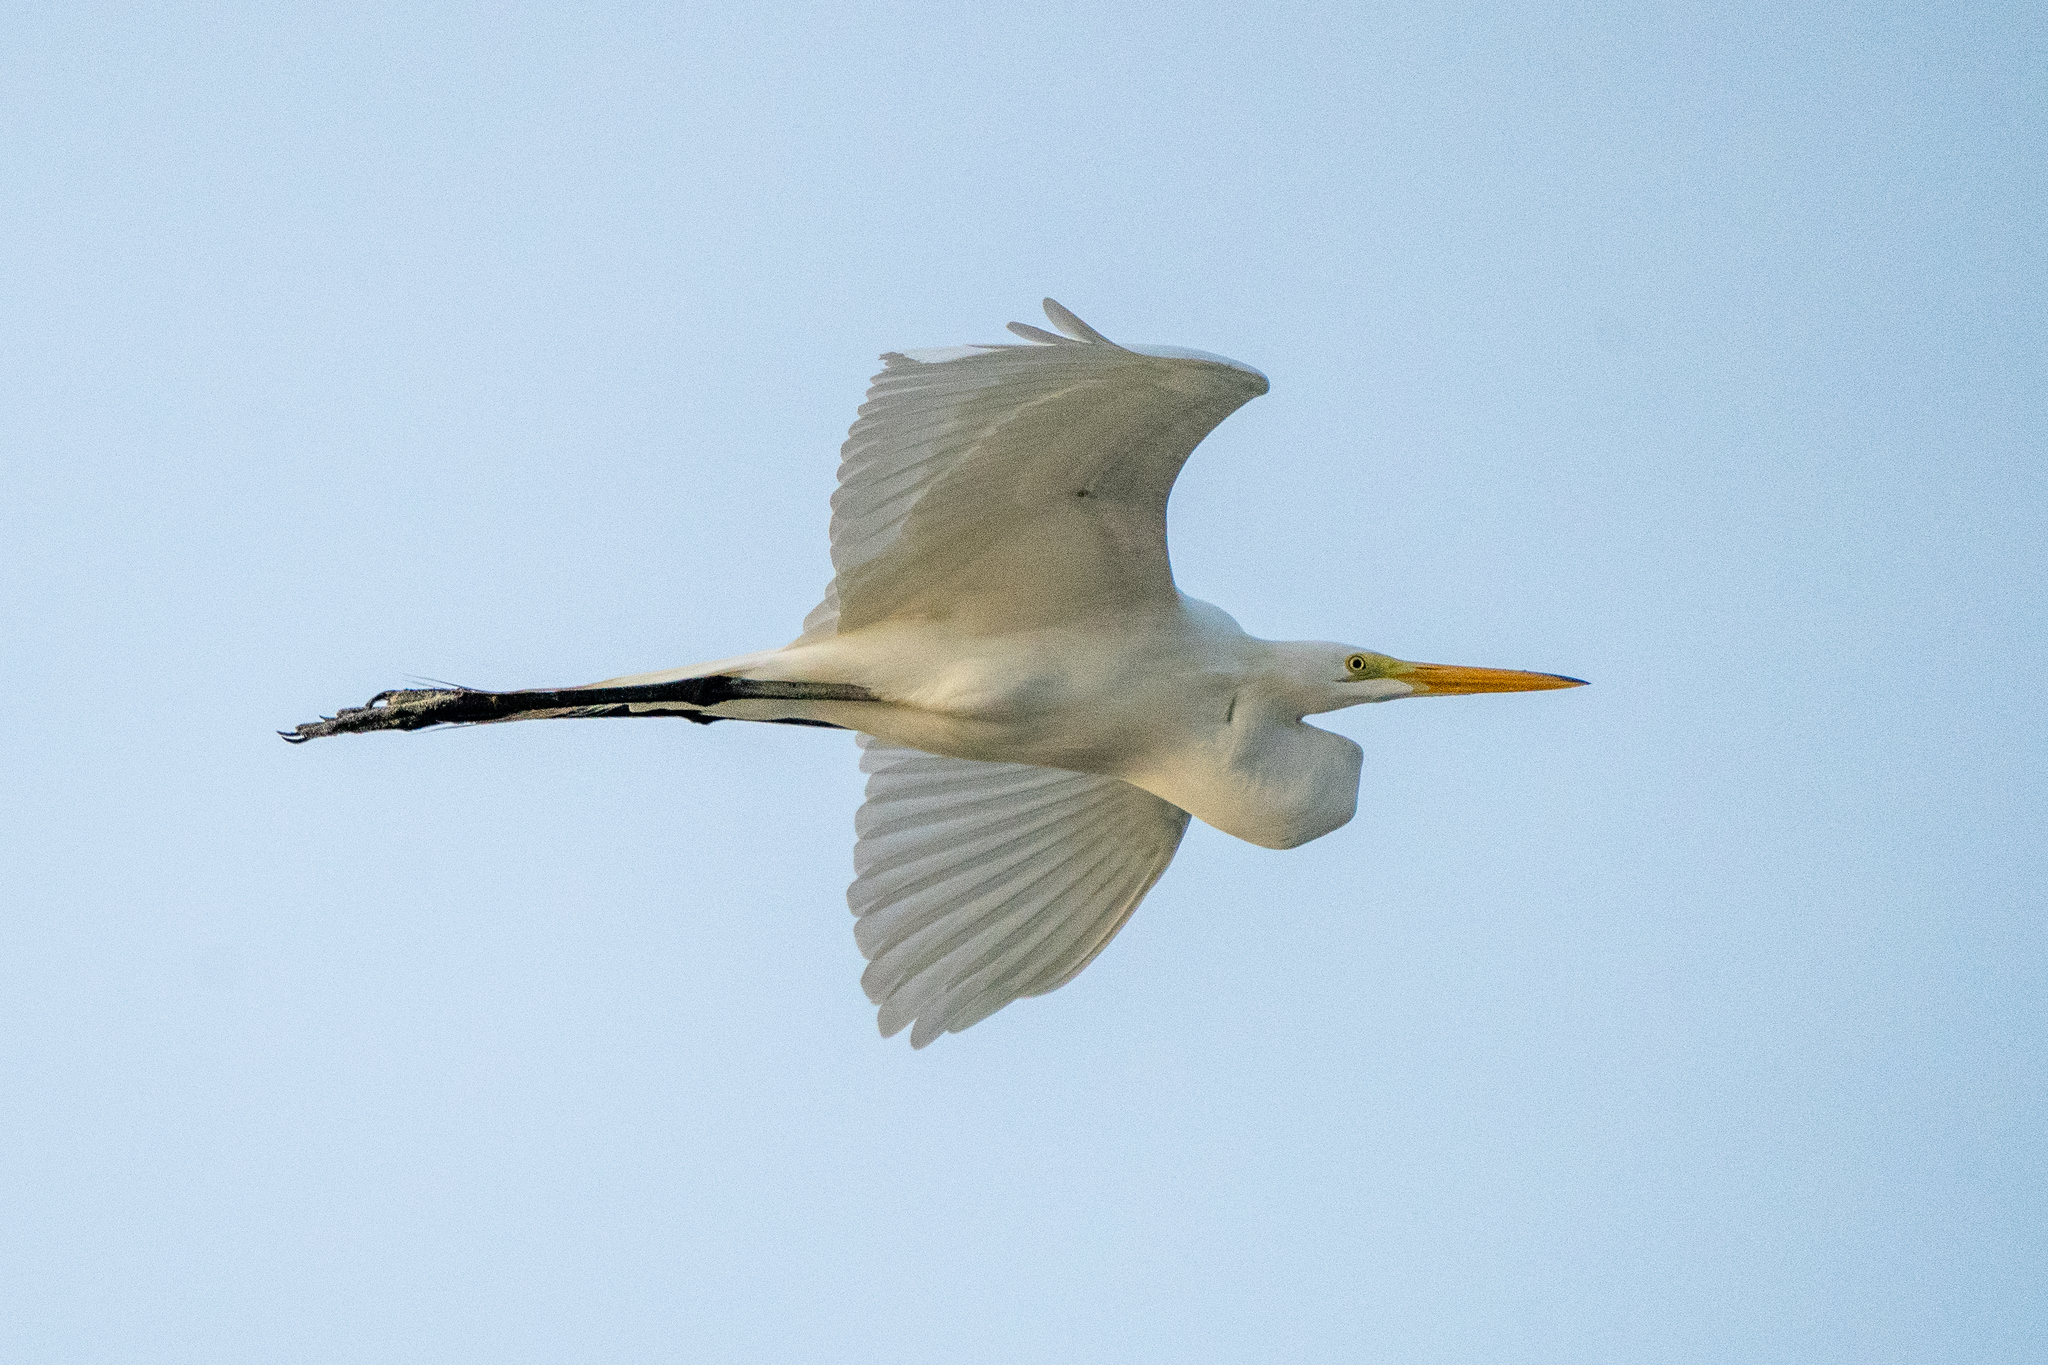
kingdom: Animalia
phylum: Chordata
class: Aves
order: Pelecaniformes
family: Ardeidae
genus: Ardea
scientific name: Ardea alba
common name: Great egret
